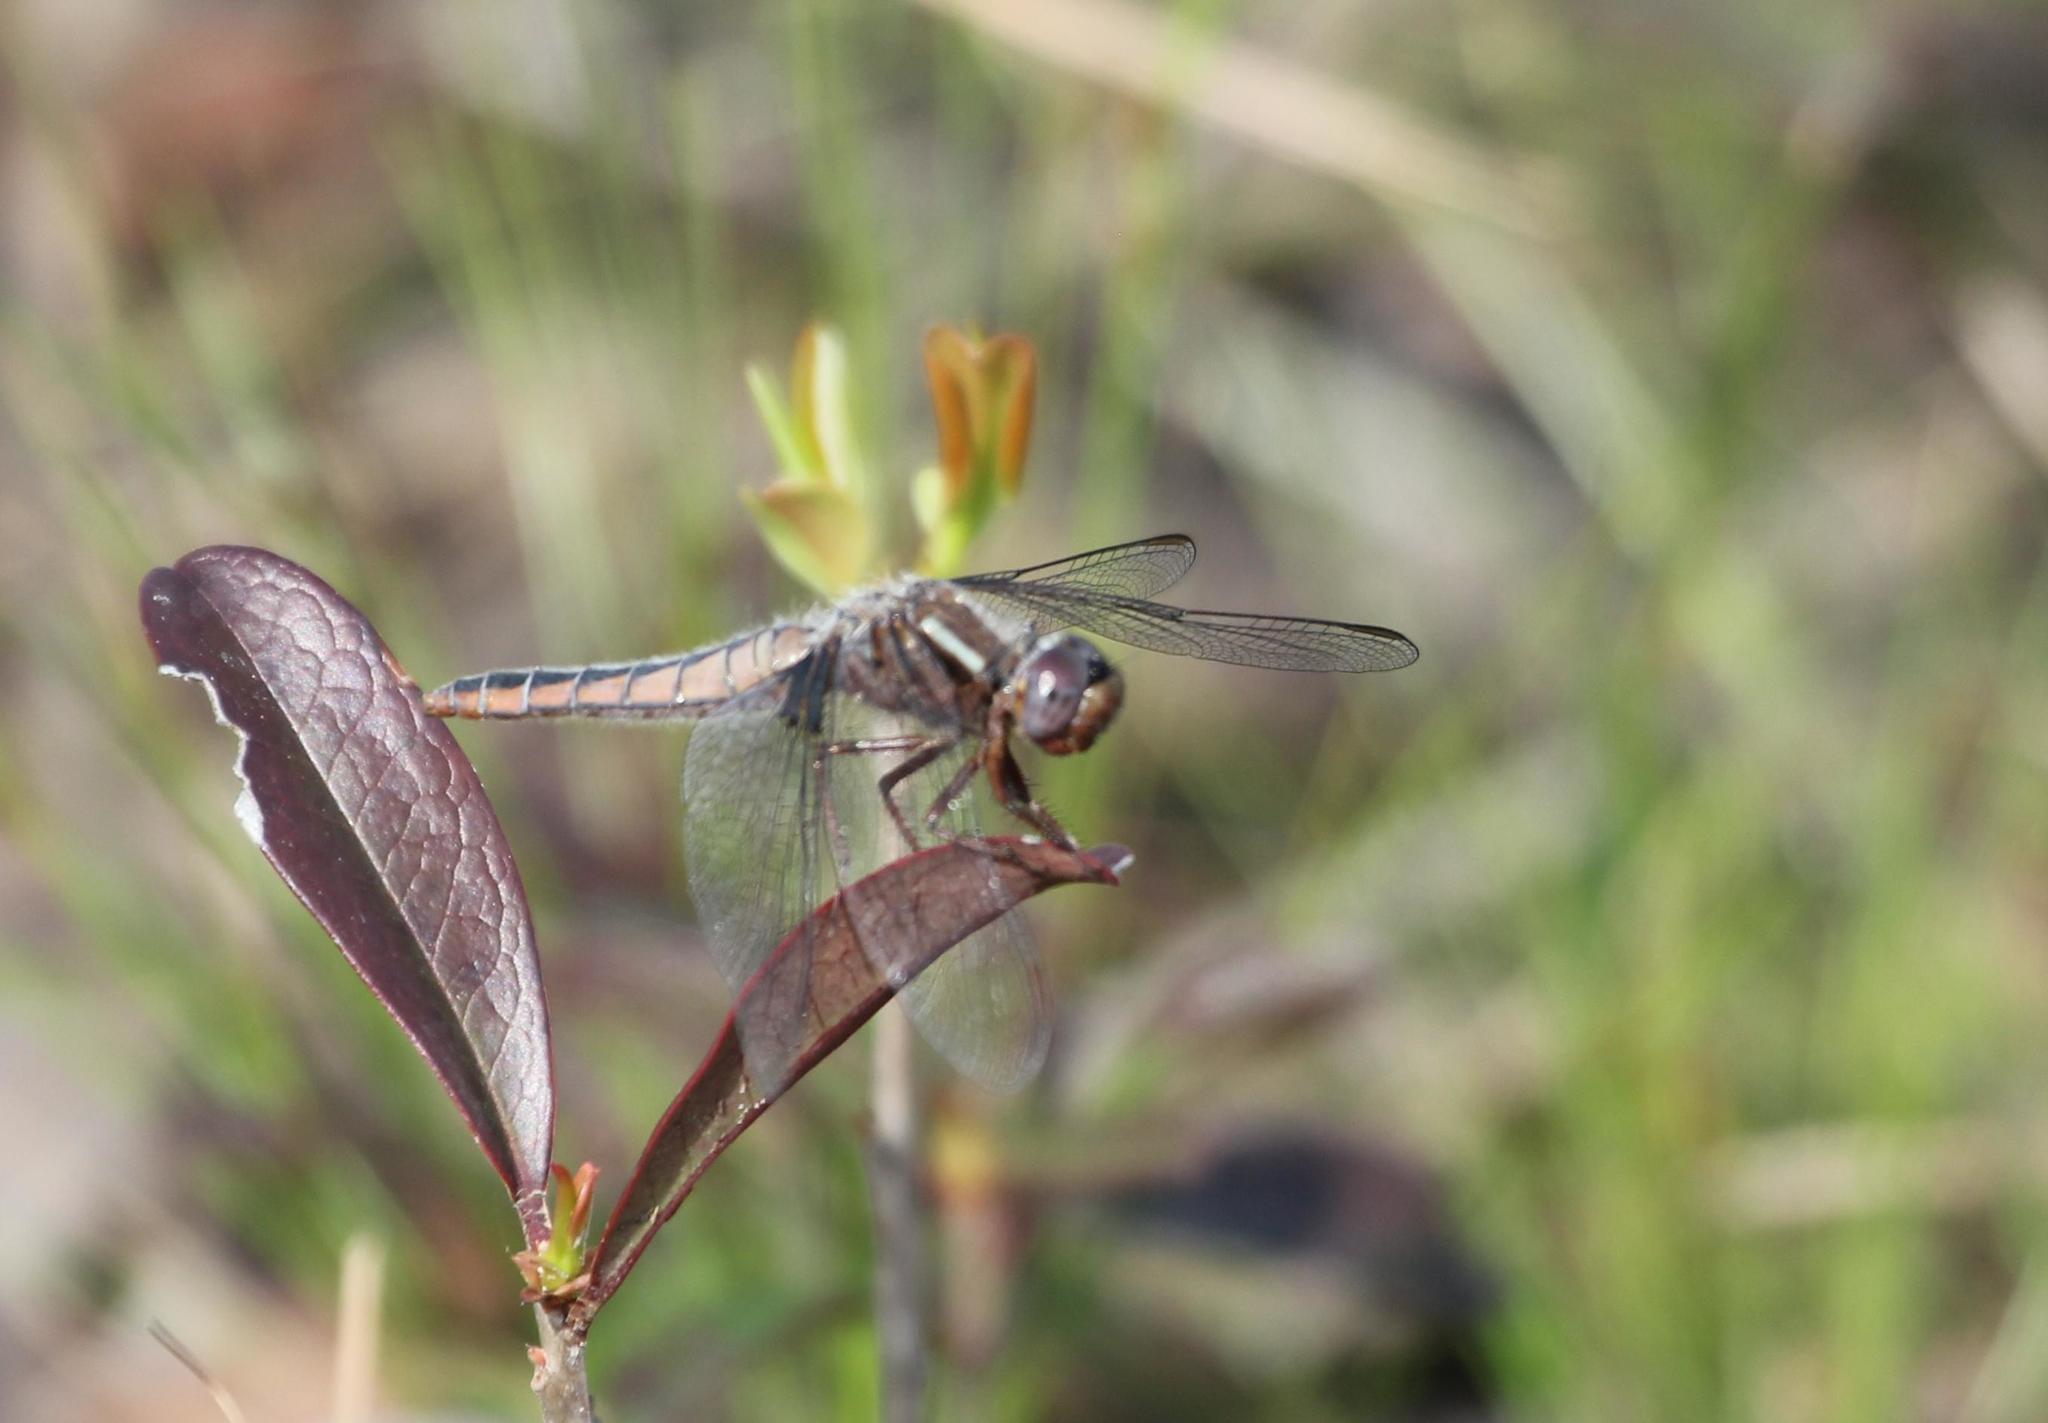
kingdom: Animalia
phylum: Arthropoda
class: Insecta
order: Odonata
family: Libellulidae
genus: Ladona
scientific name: Ladona deplanata
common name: Blue corporal
